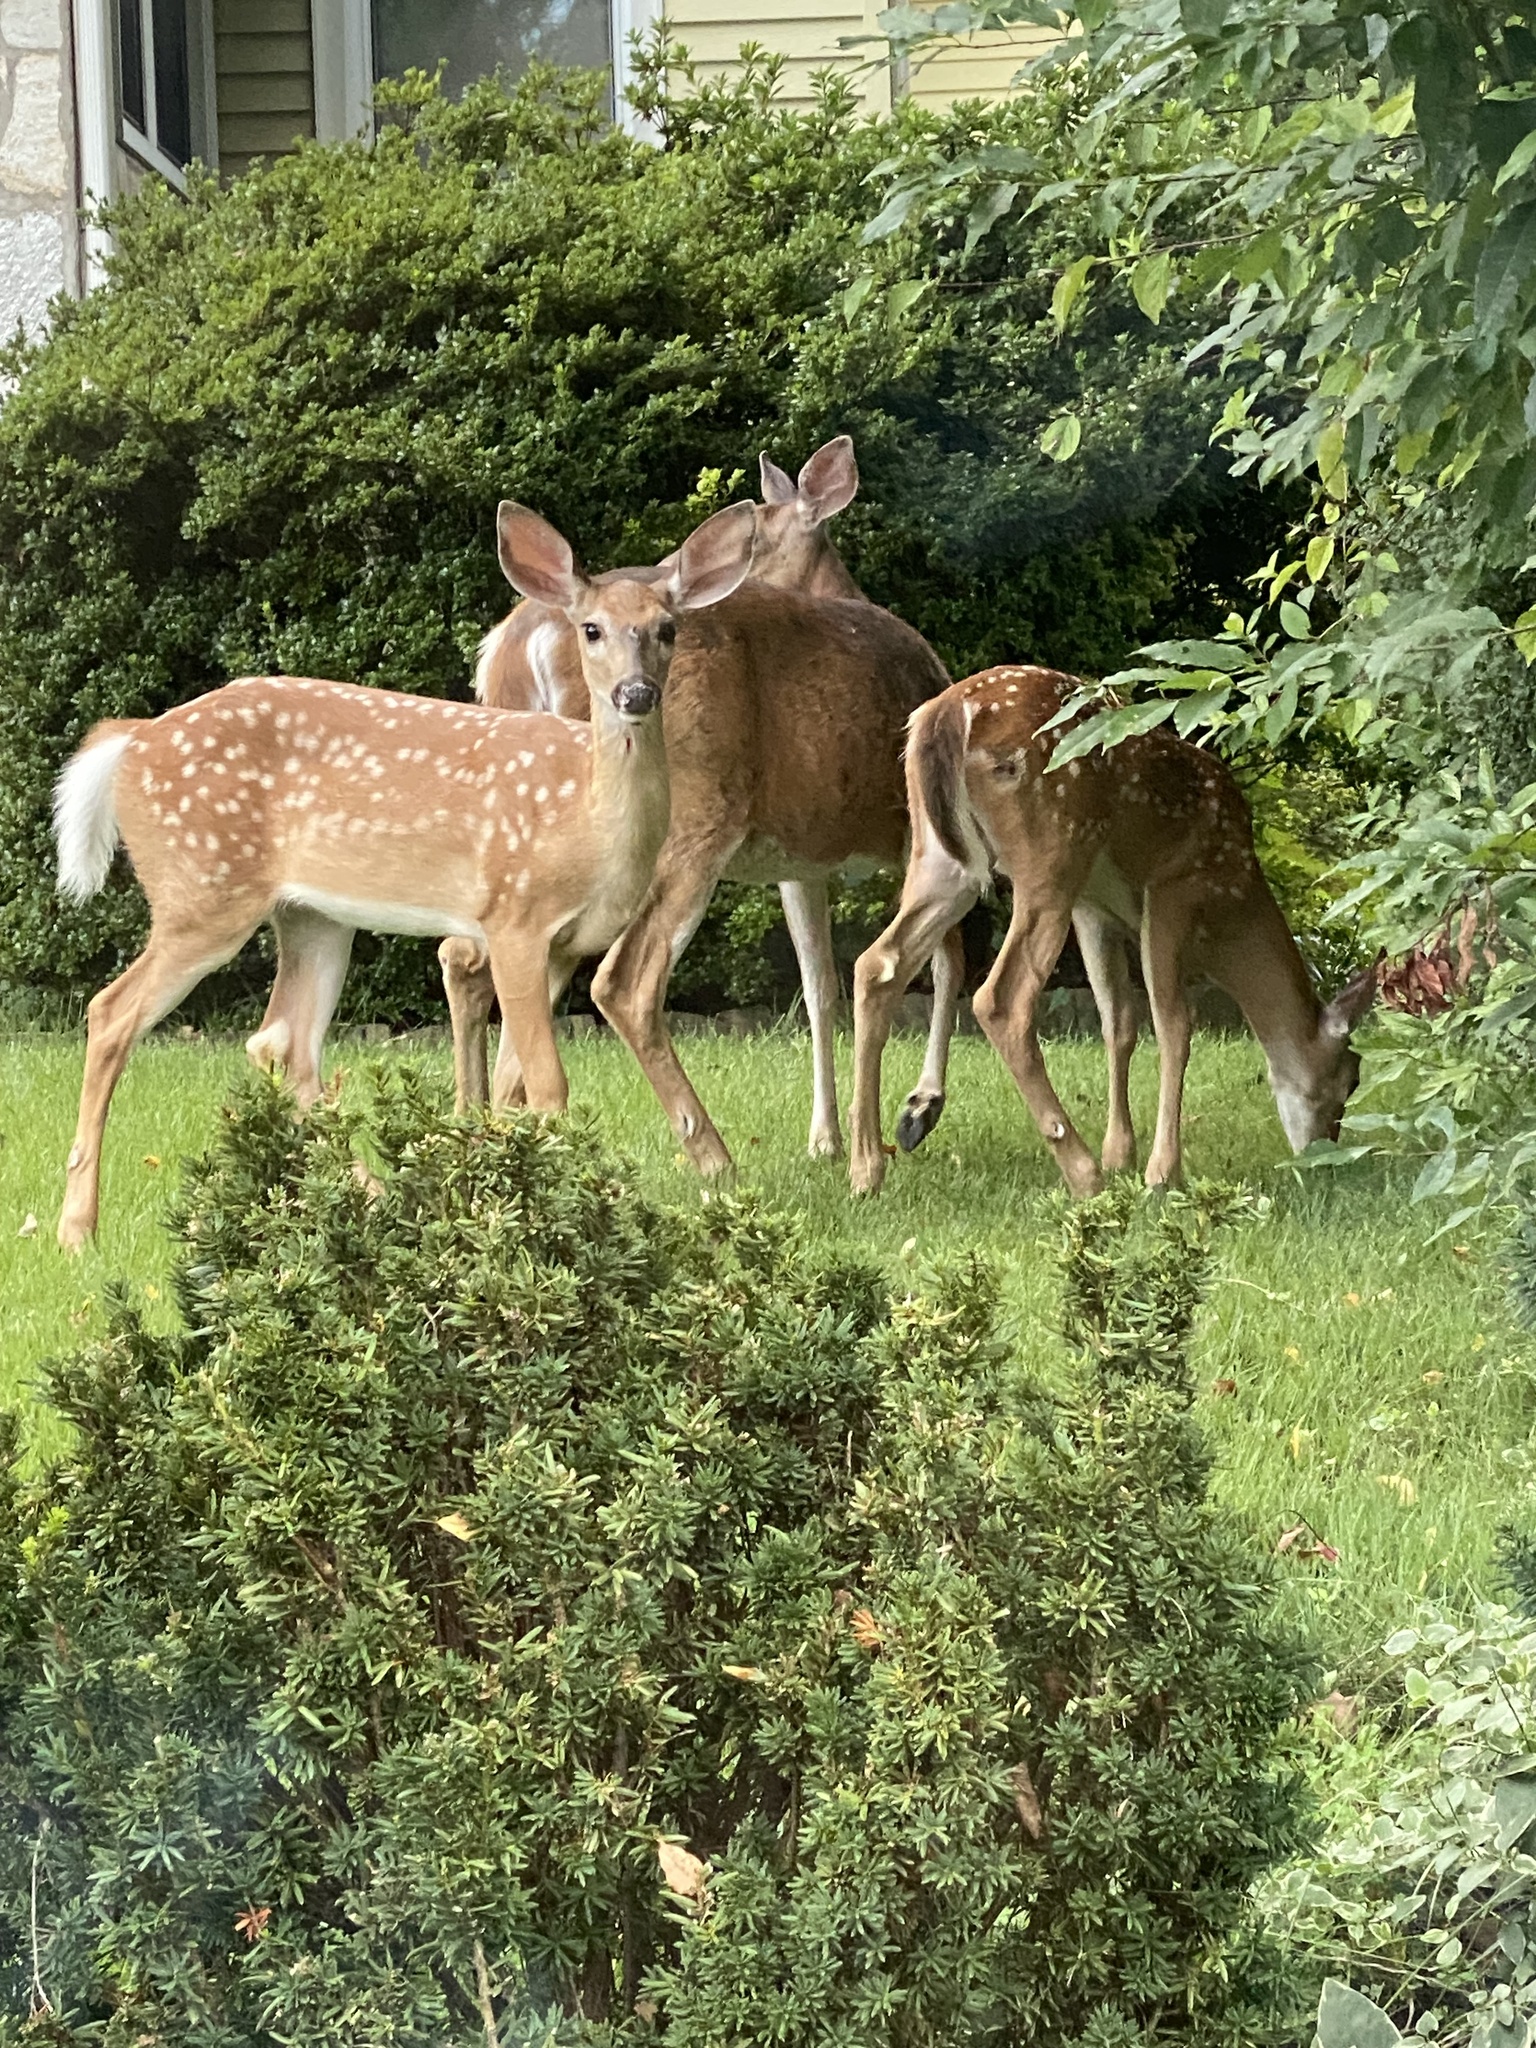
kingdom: Animalia
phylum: Chordata
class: Mammalia
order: Artiodactyla
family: Cervidae
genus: Odocoileus
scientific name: Odocoileus virginianus
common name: White-tailed deer
